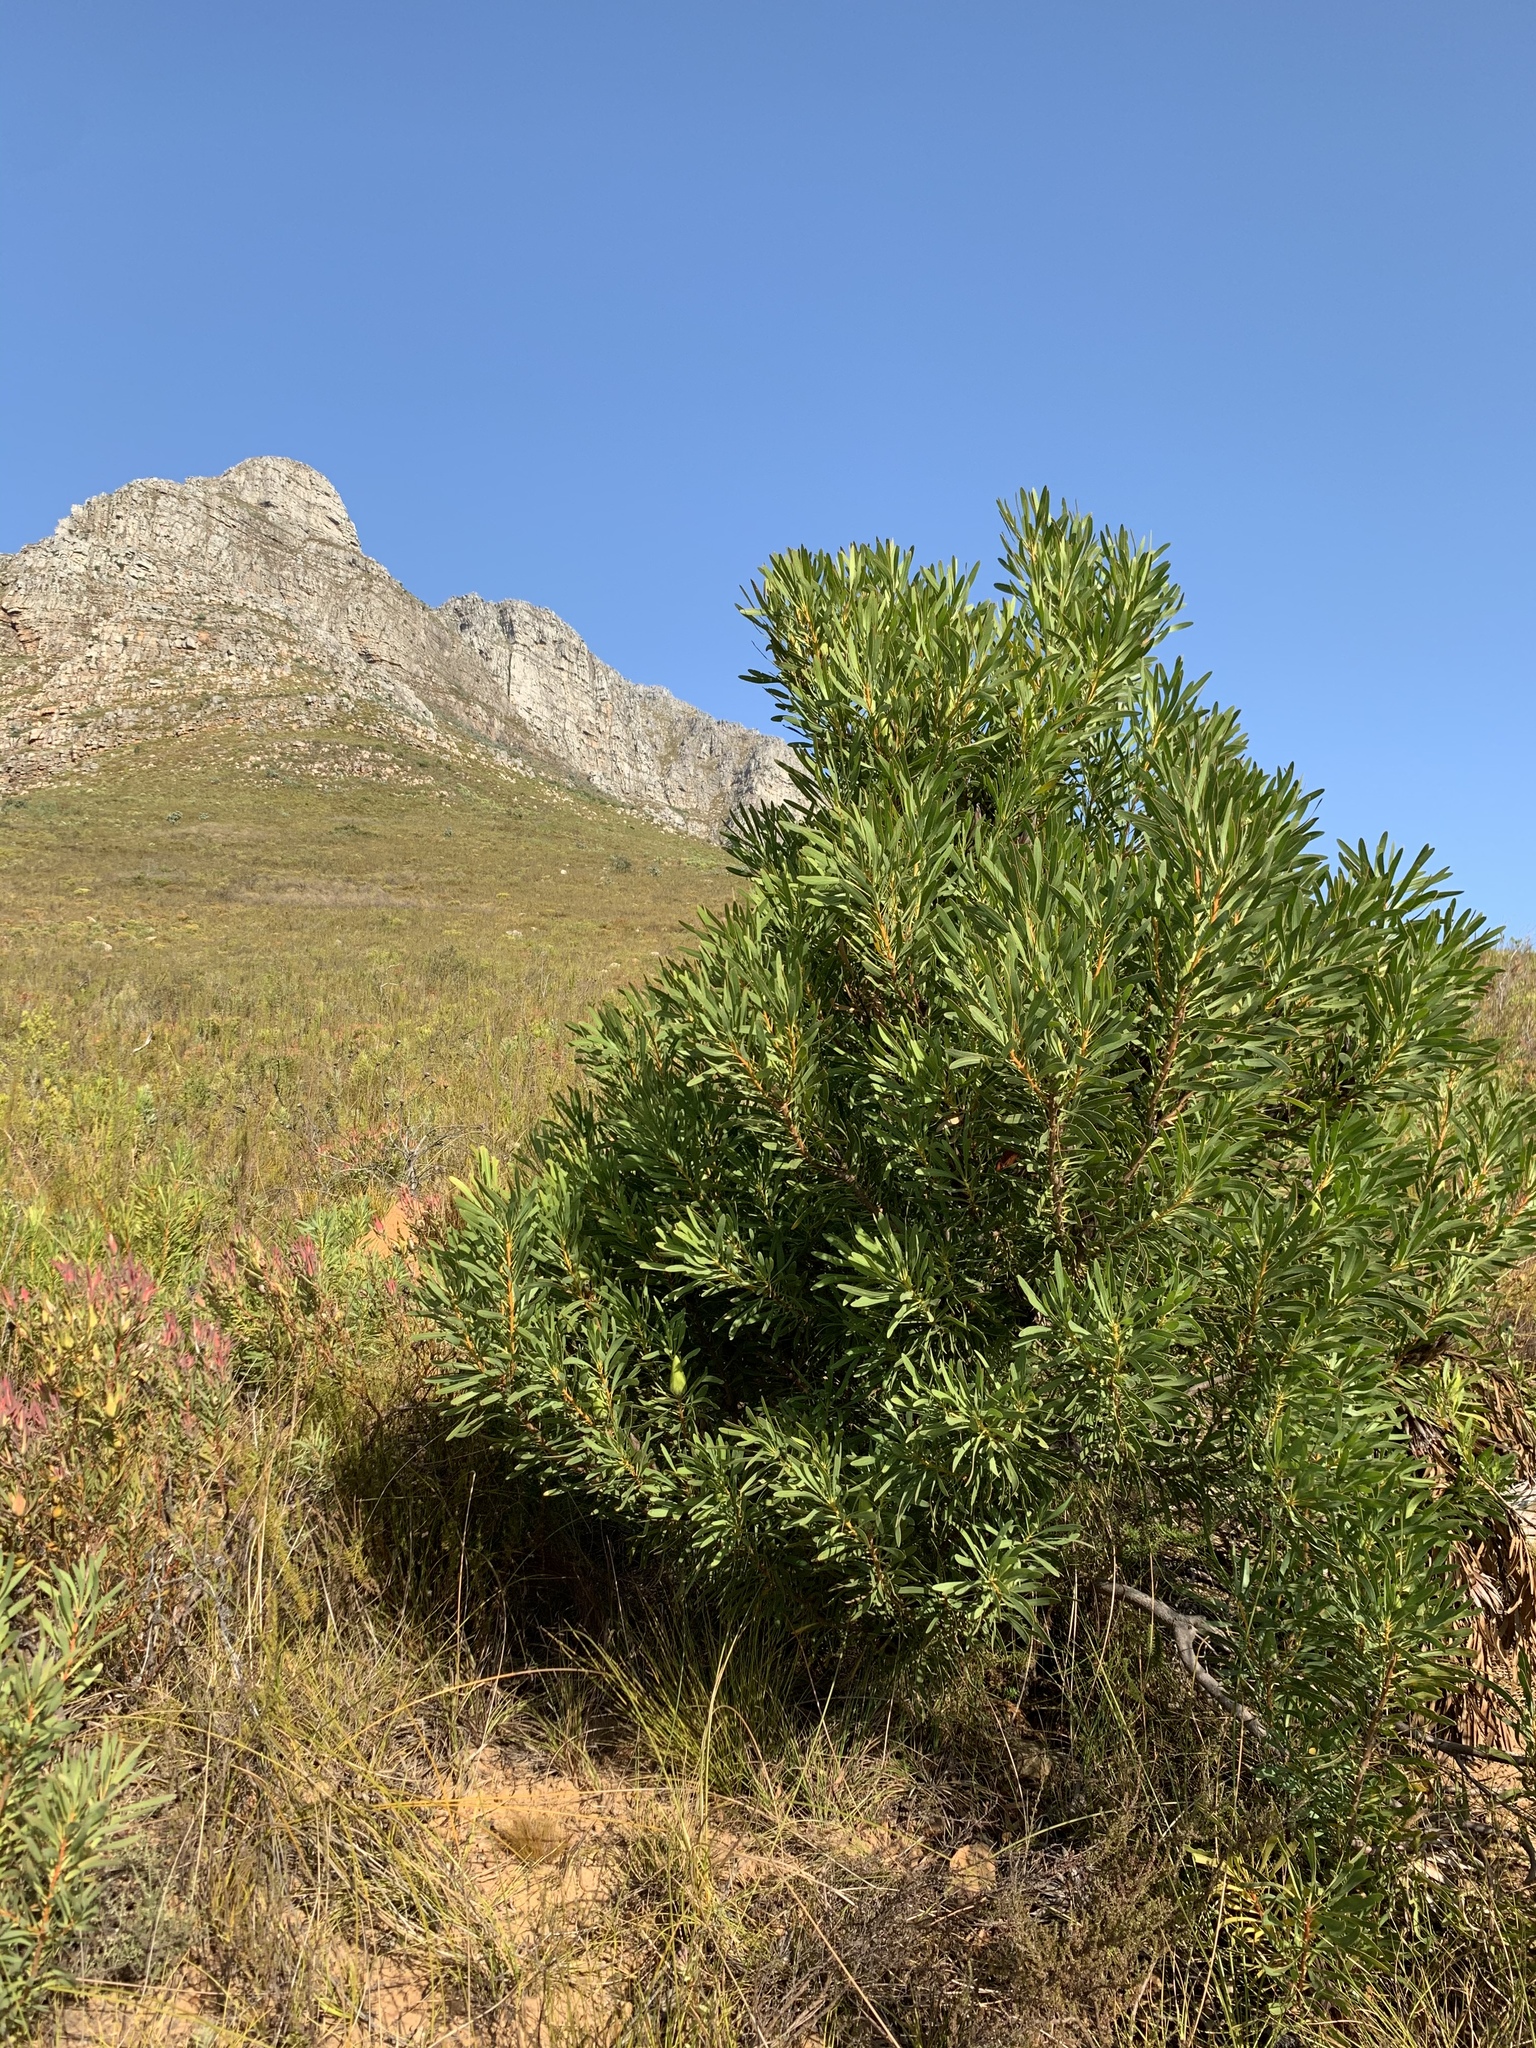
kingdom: Plantae
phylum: Tracheophyta
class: Magnoliopsida
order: Proteales
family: Proteaceae
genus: Protea
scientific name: Protea repens
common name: Sugarbush
